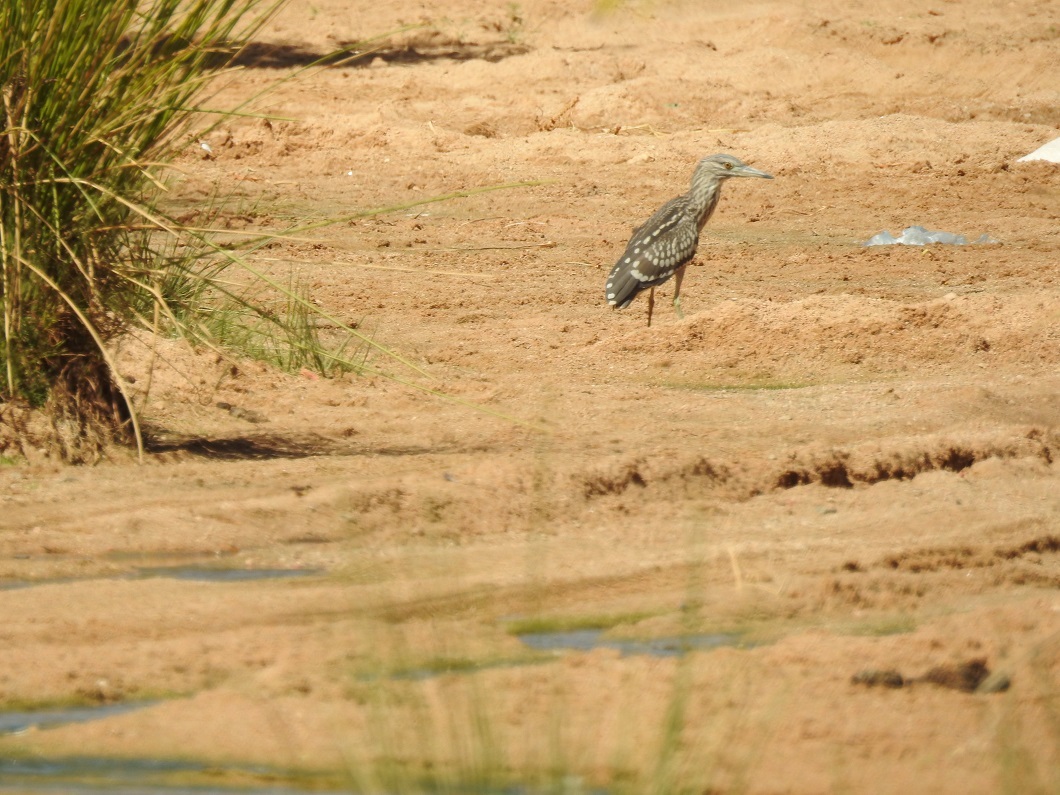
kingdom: Animalia
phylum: Chordata
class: Aves
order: Pelecaniformes
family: Ardeidae
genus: Nycticorax
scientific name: Nycticorax nycticorax
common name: Black-crowned night heron
